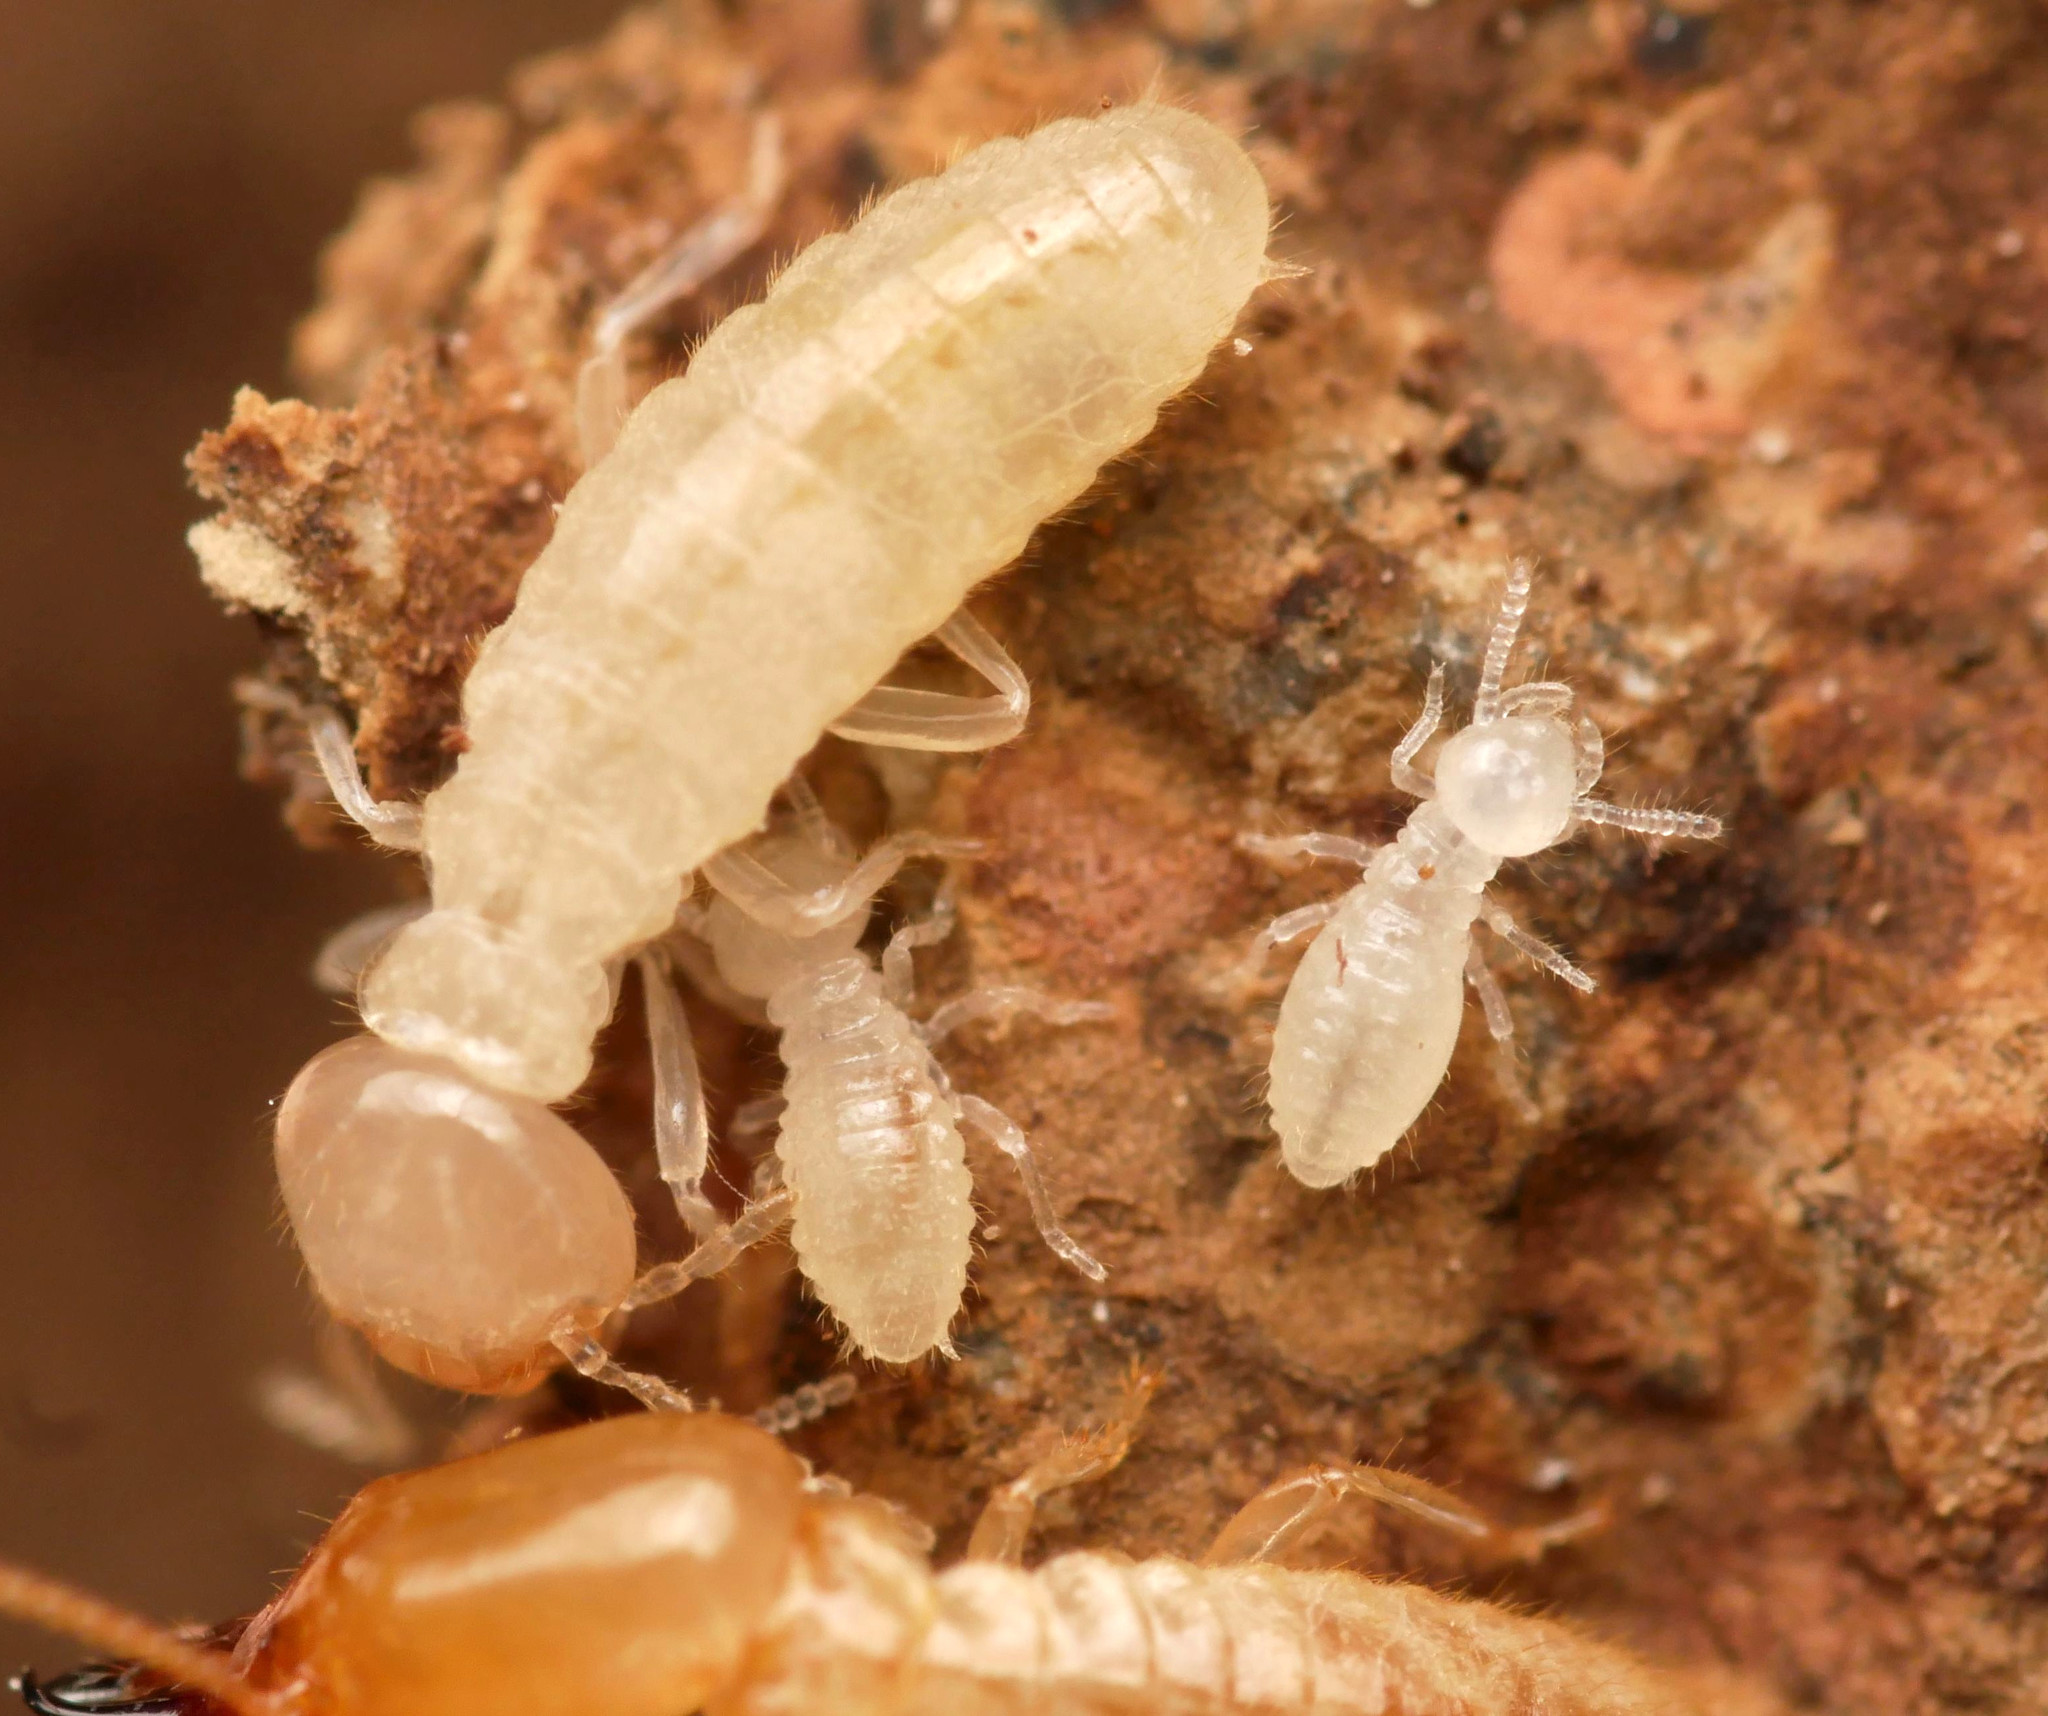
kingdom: Animalia
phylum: Arthropoda
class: Insecta
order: Blattodea
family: Rhinotermitidae
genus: Reticulitermes
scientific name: Reticulitermes
